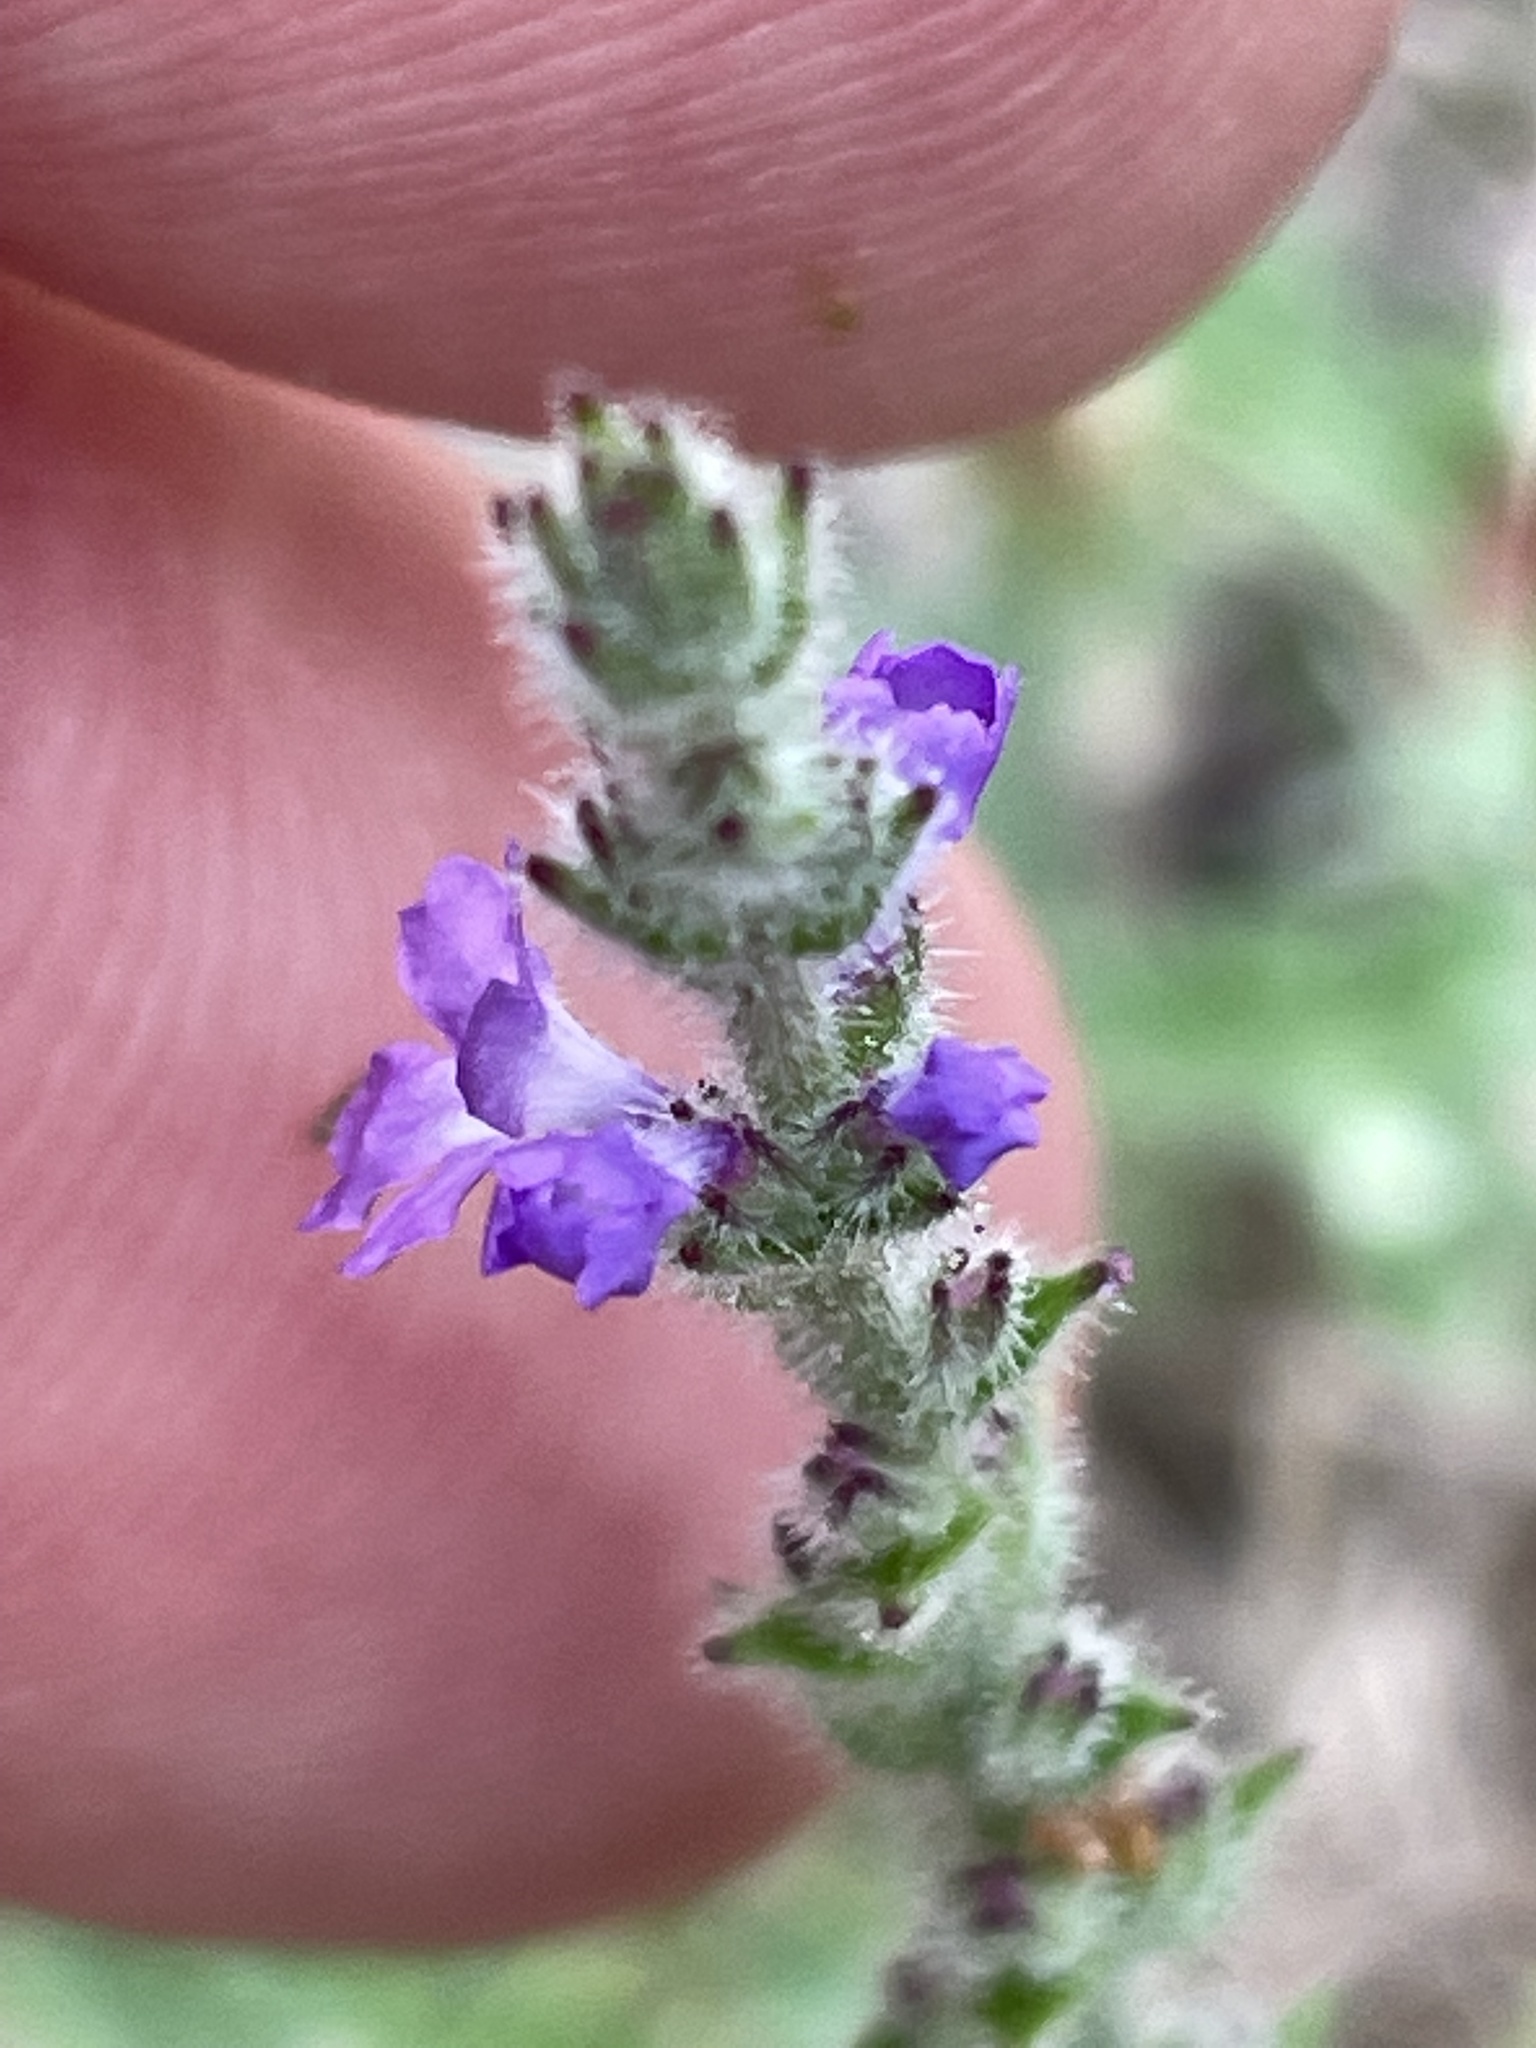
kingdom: Plantae
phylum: Tracheophyta
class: Magnoliopsida
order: Lamiales
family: Verbenaceae
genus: Verbena
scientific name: Verbena canescens
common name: Gray vervain
